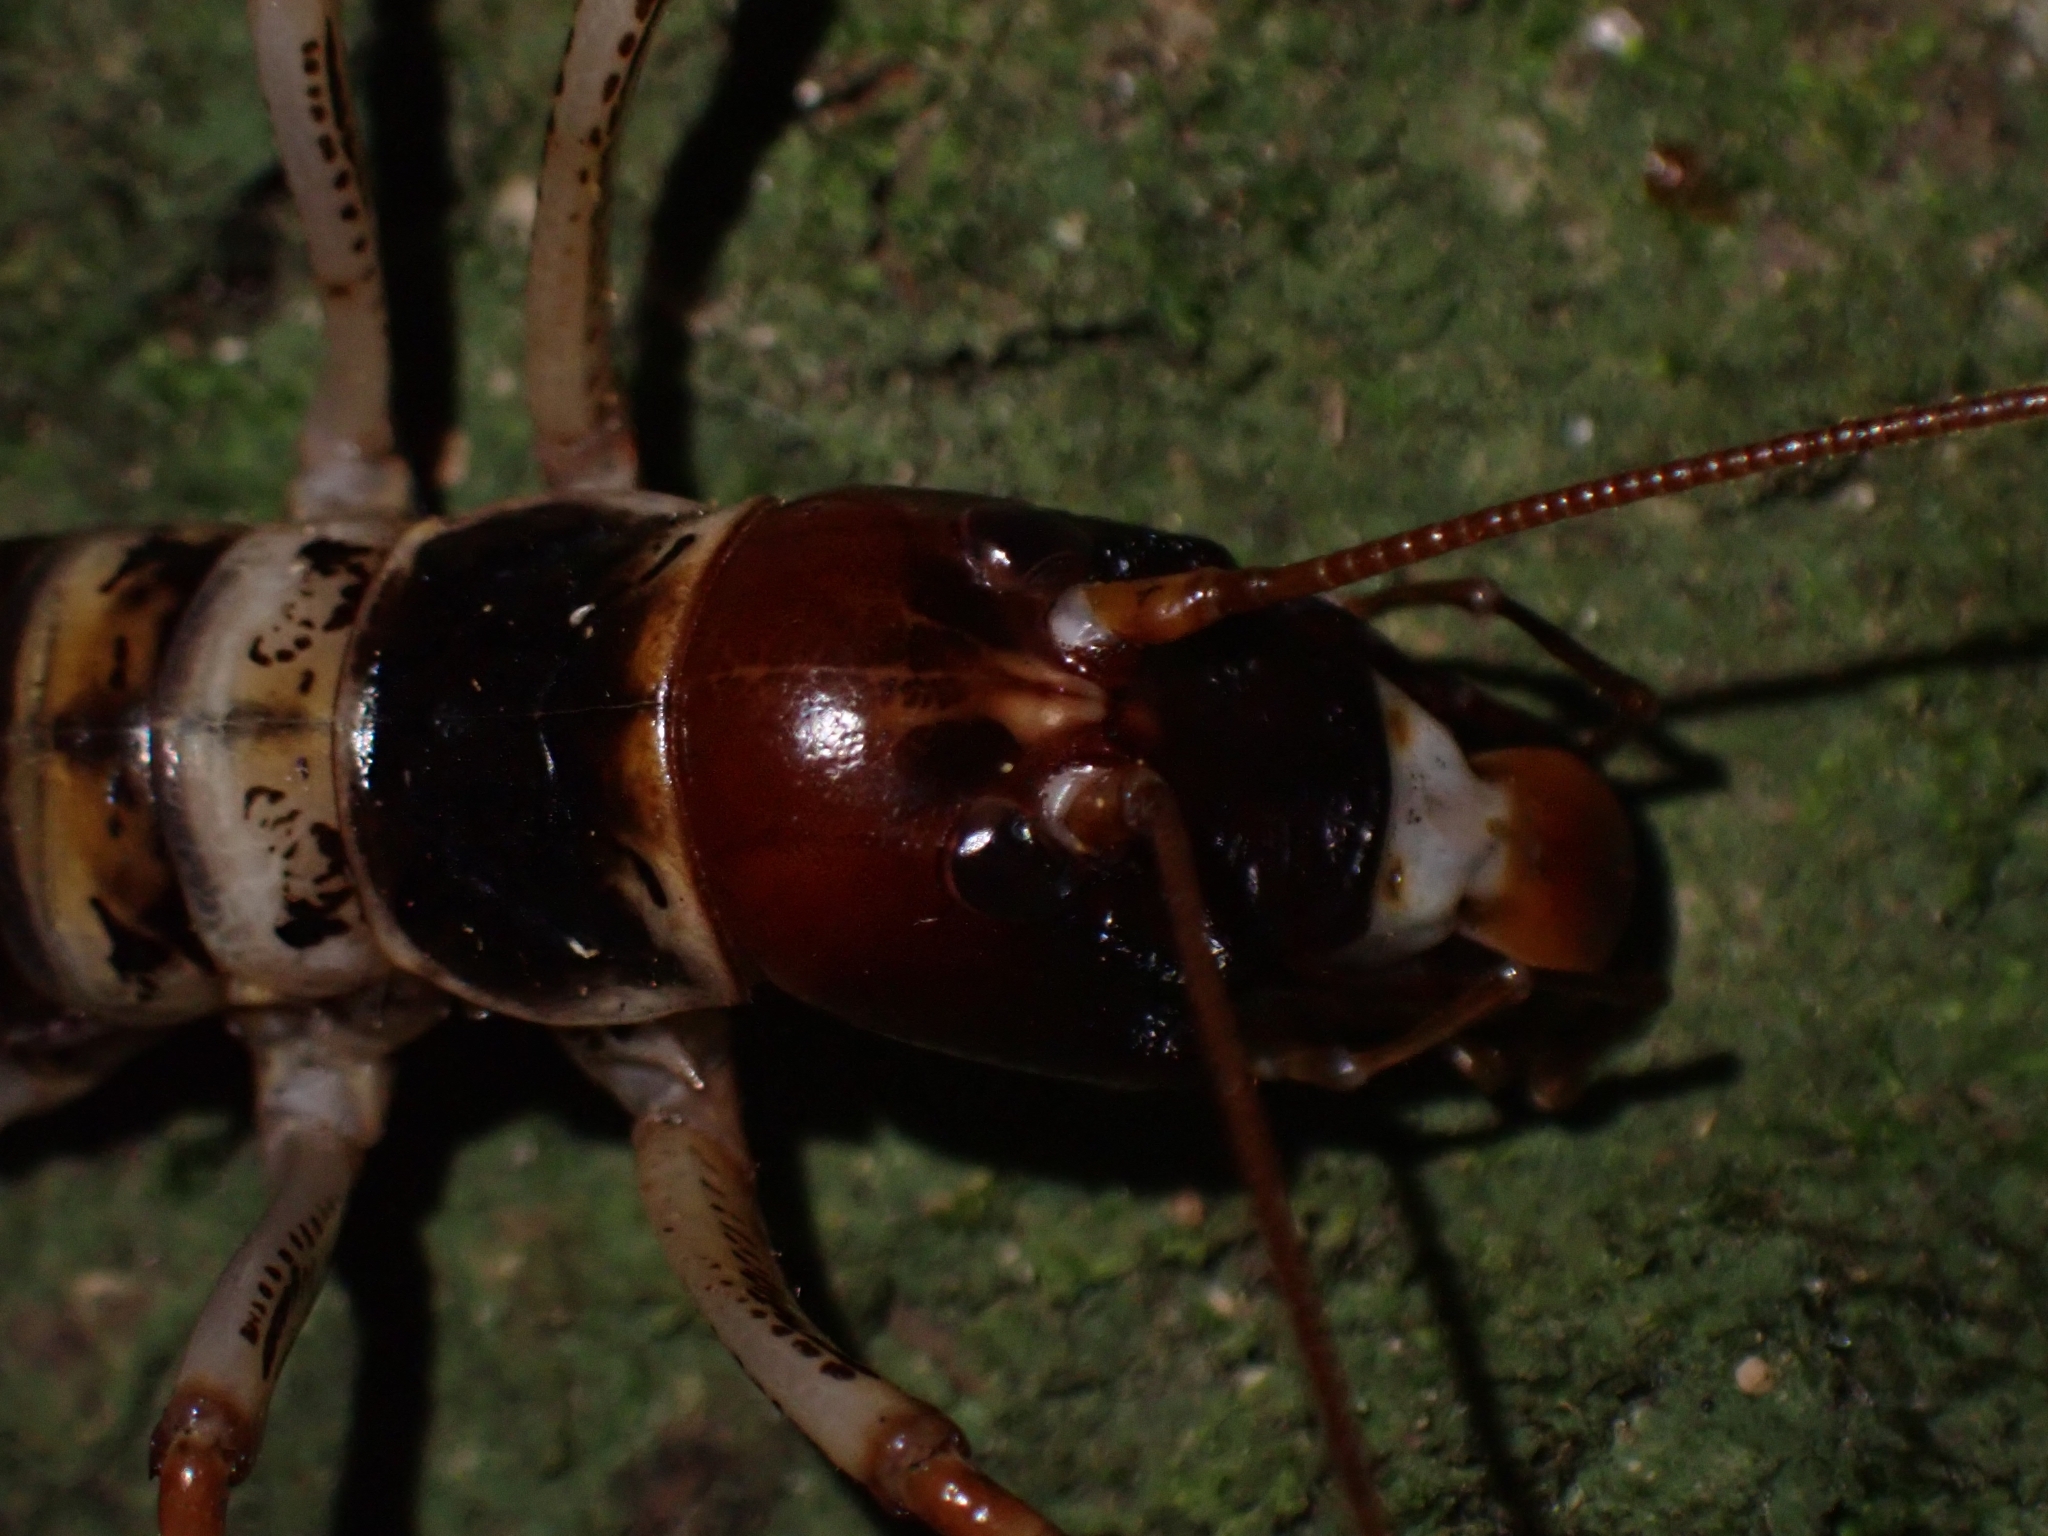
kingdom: Animalia
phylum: Arthropoda
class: Insecta
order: Orthoptera
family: Anostostomatidae
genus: Hemideina
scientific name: Hemideina crassidens
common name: Wellington tree weta
